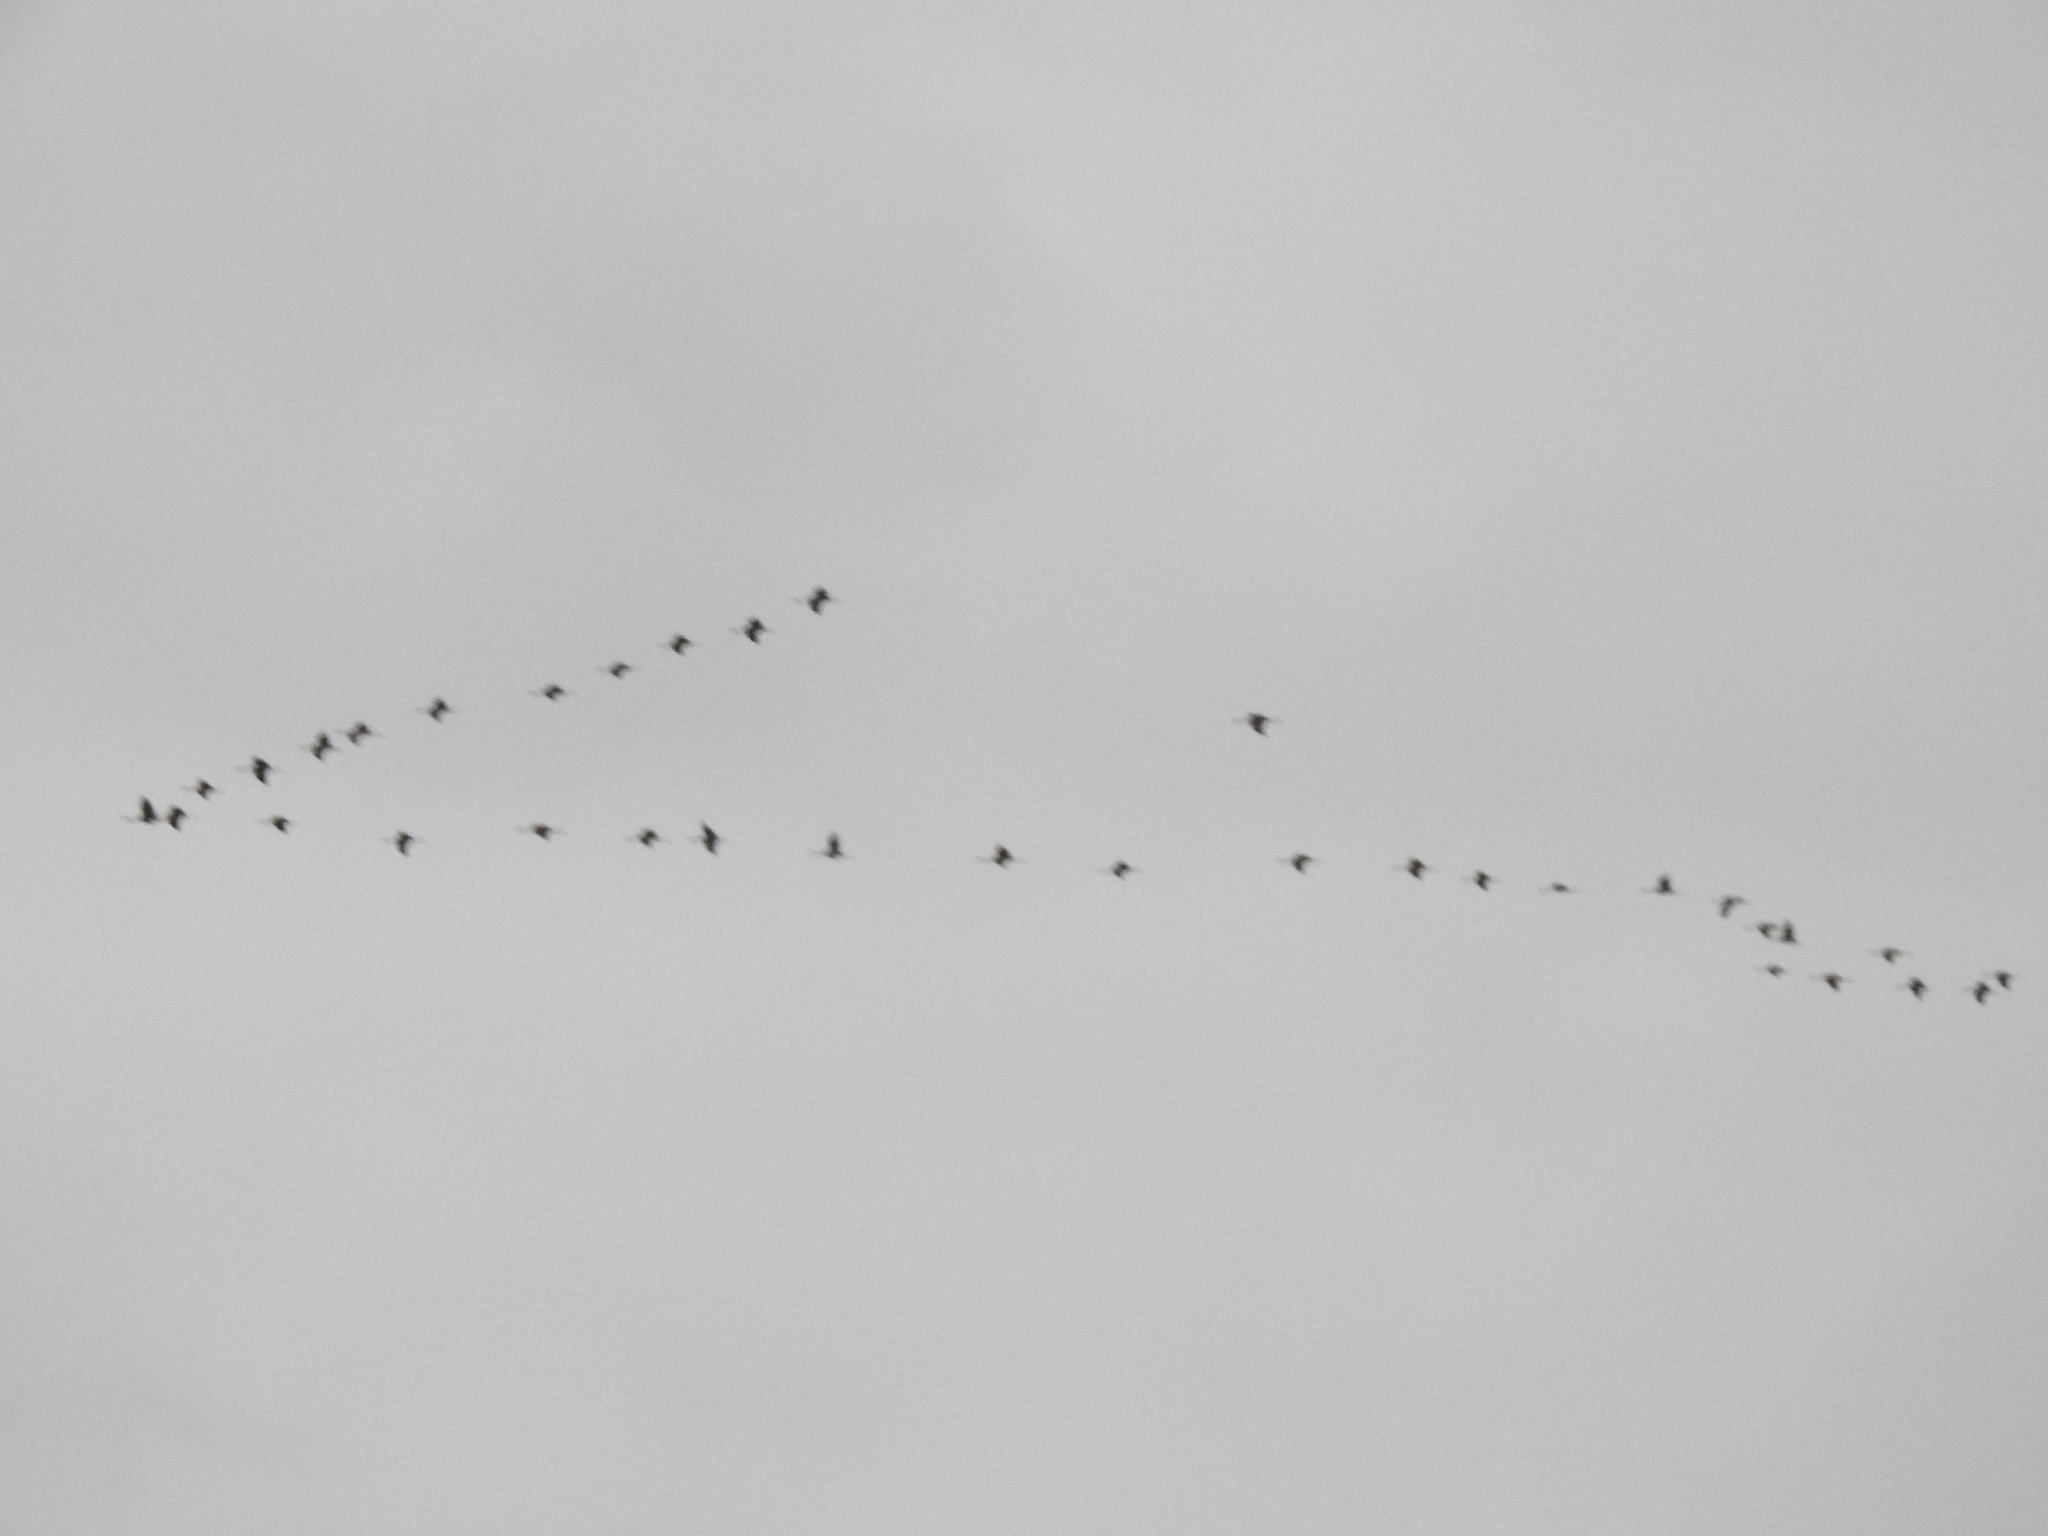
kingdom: Animalia
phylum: Chordata
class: Aves
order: Gruiformes
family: Gruidae
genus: Grus
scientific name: Grus canadensis
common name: Sandhill crane
